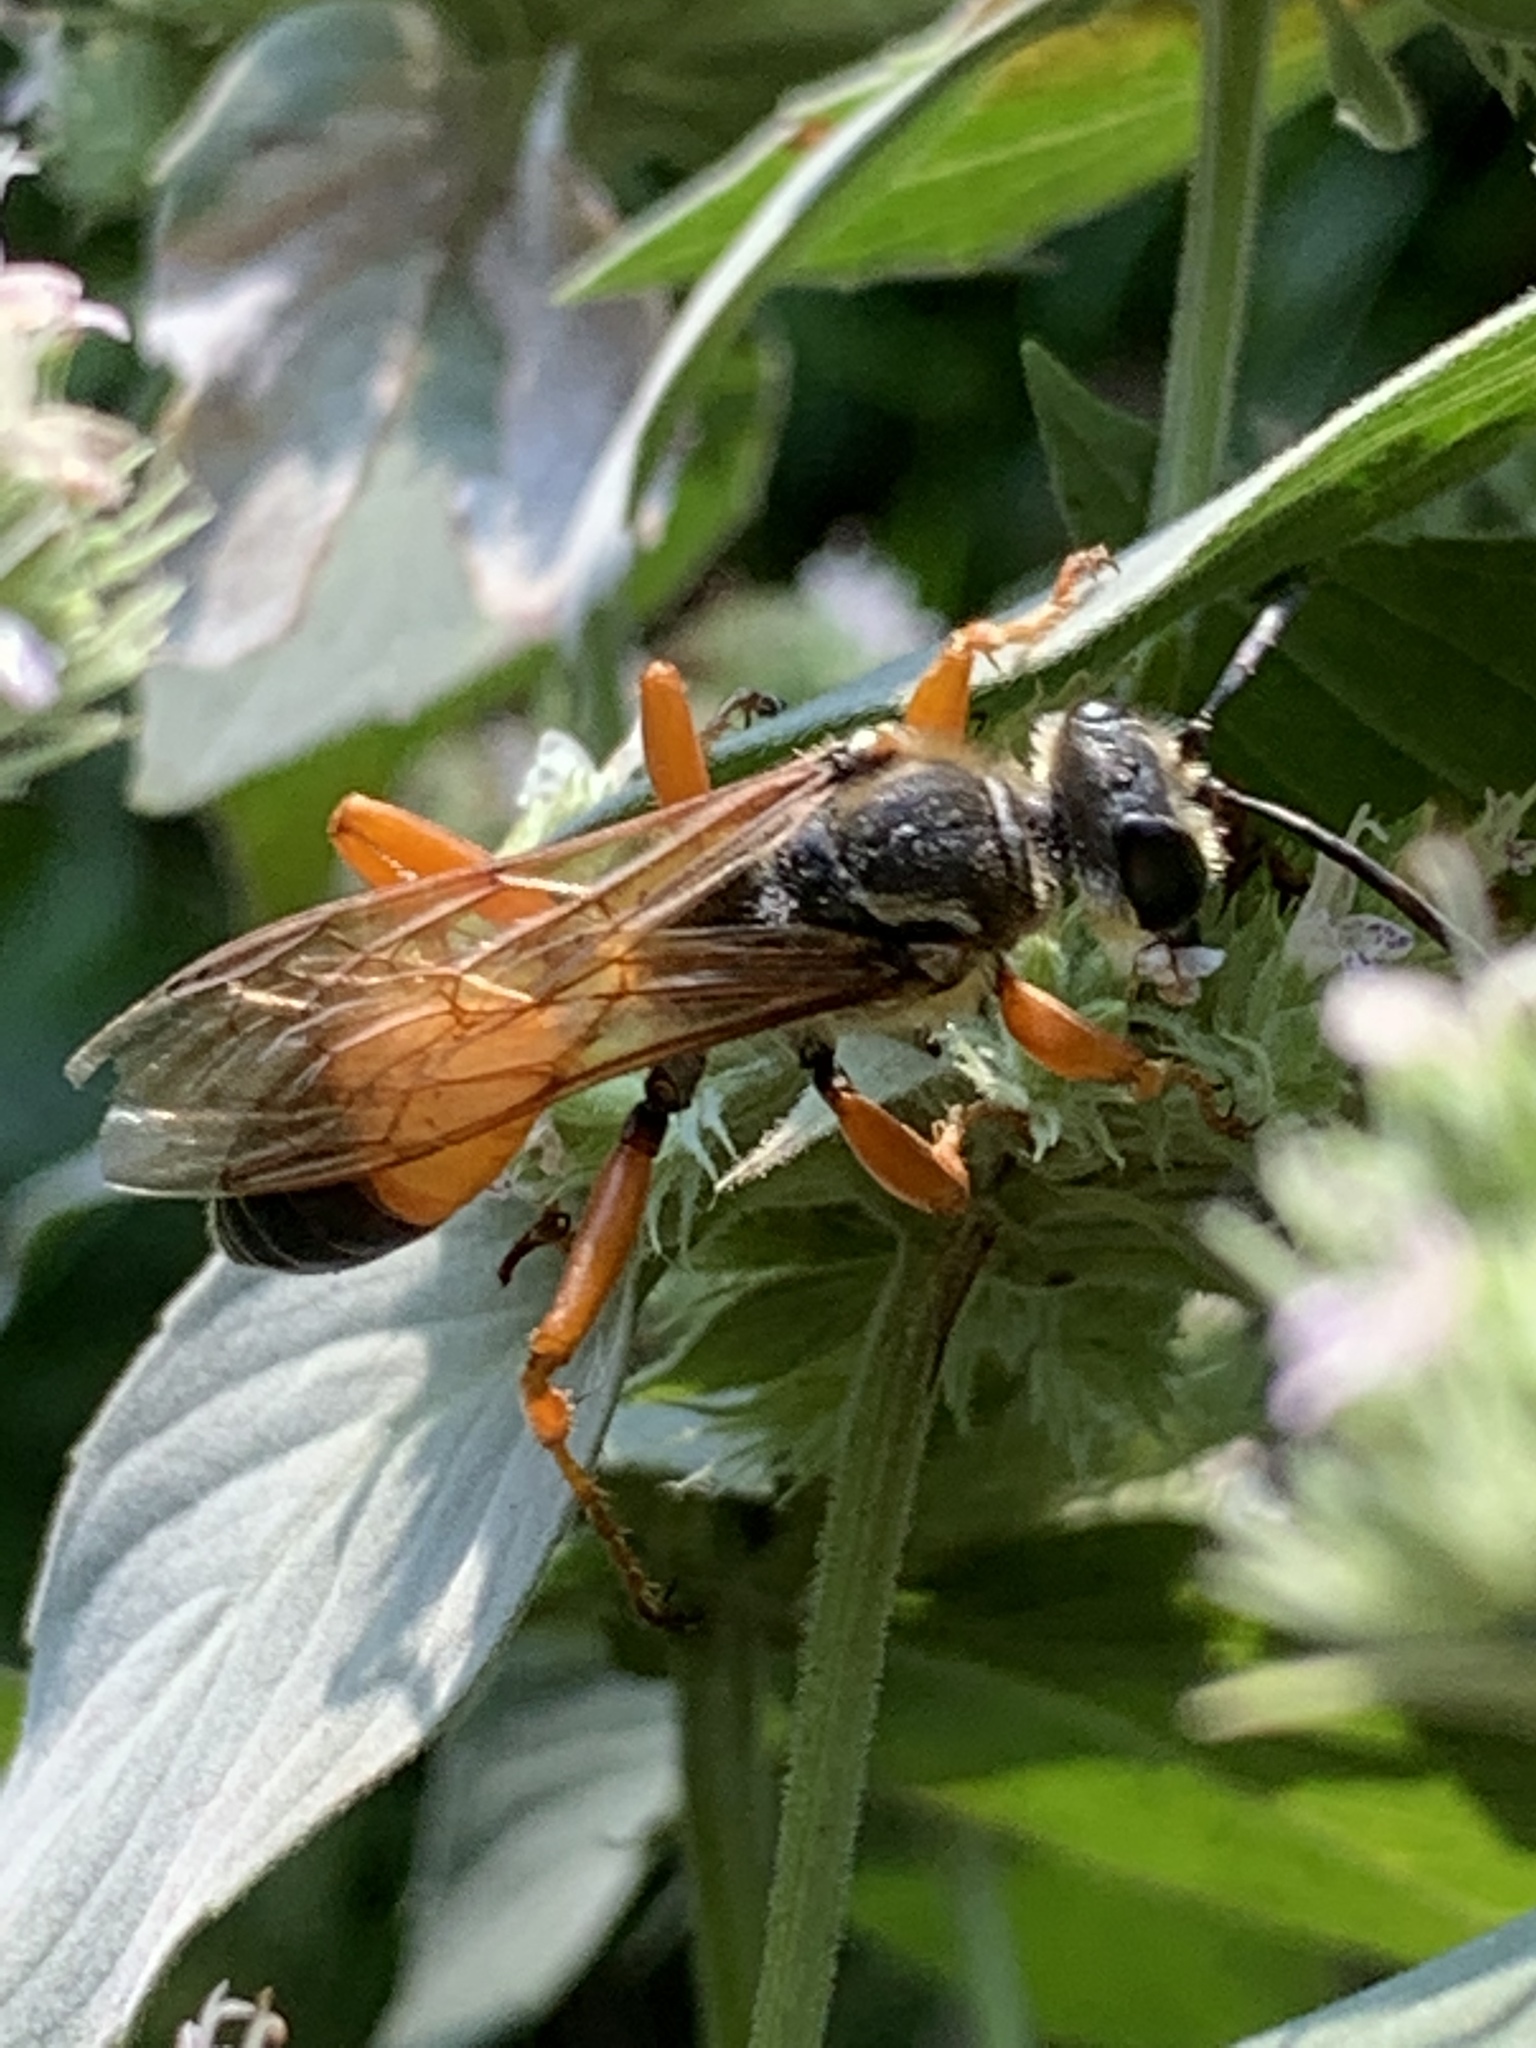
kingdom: Animalia
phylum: Arthropoda
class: Insecta
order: Hymenoptera
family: Sphecidae
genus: Sphex
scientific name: Sphex ichneumoneus
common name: Great golden digger wasp
